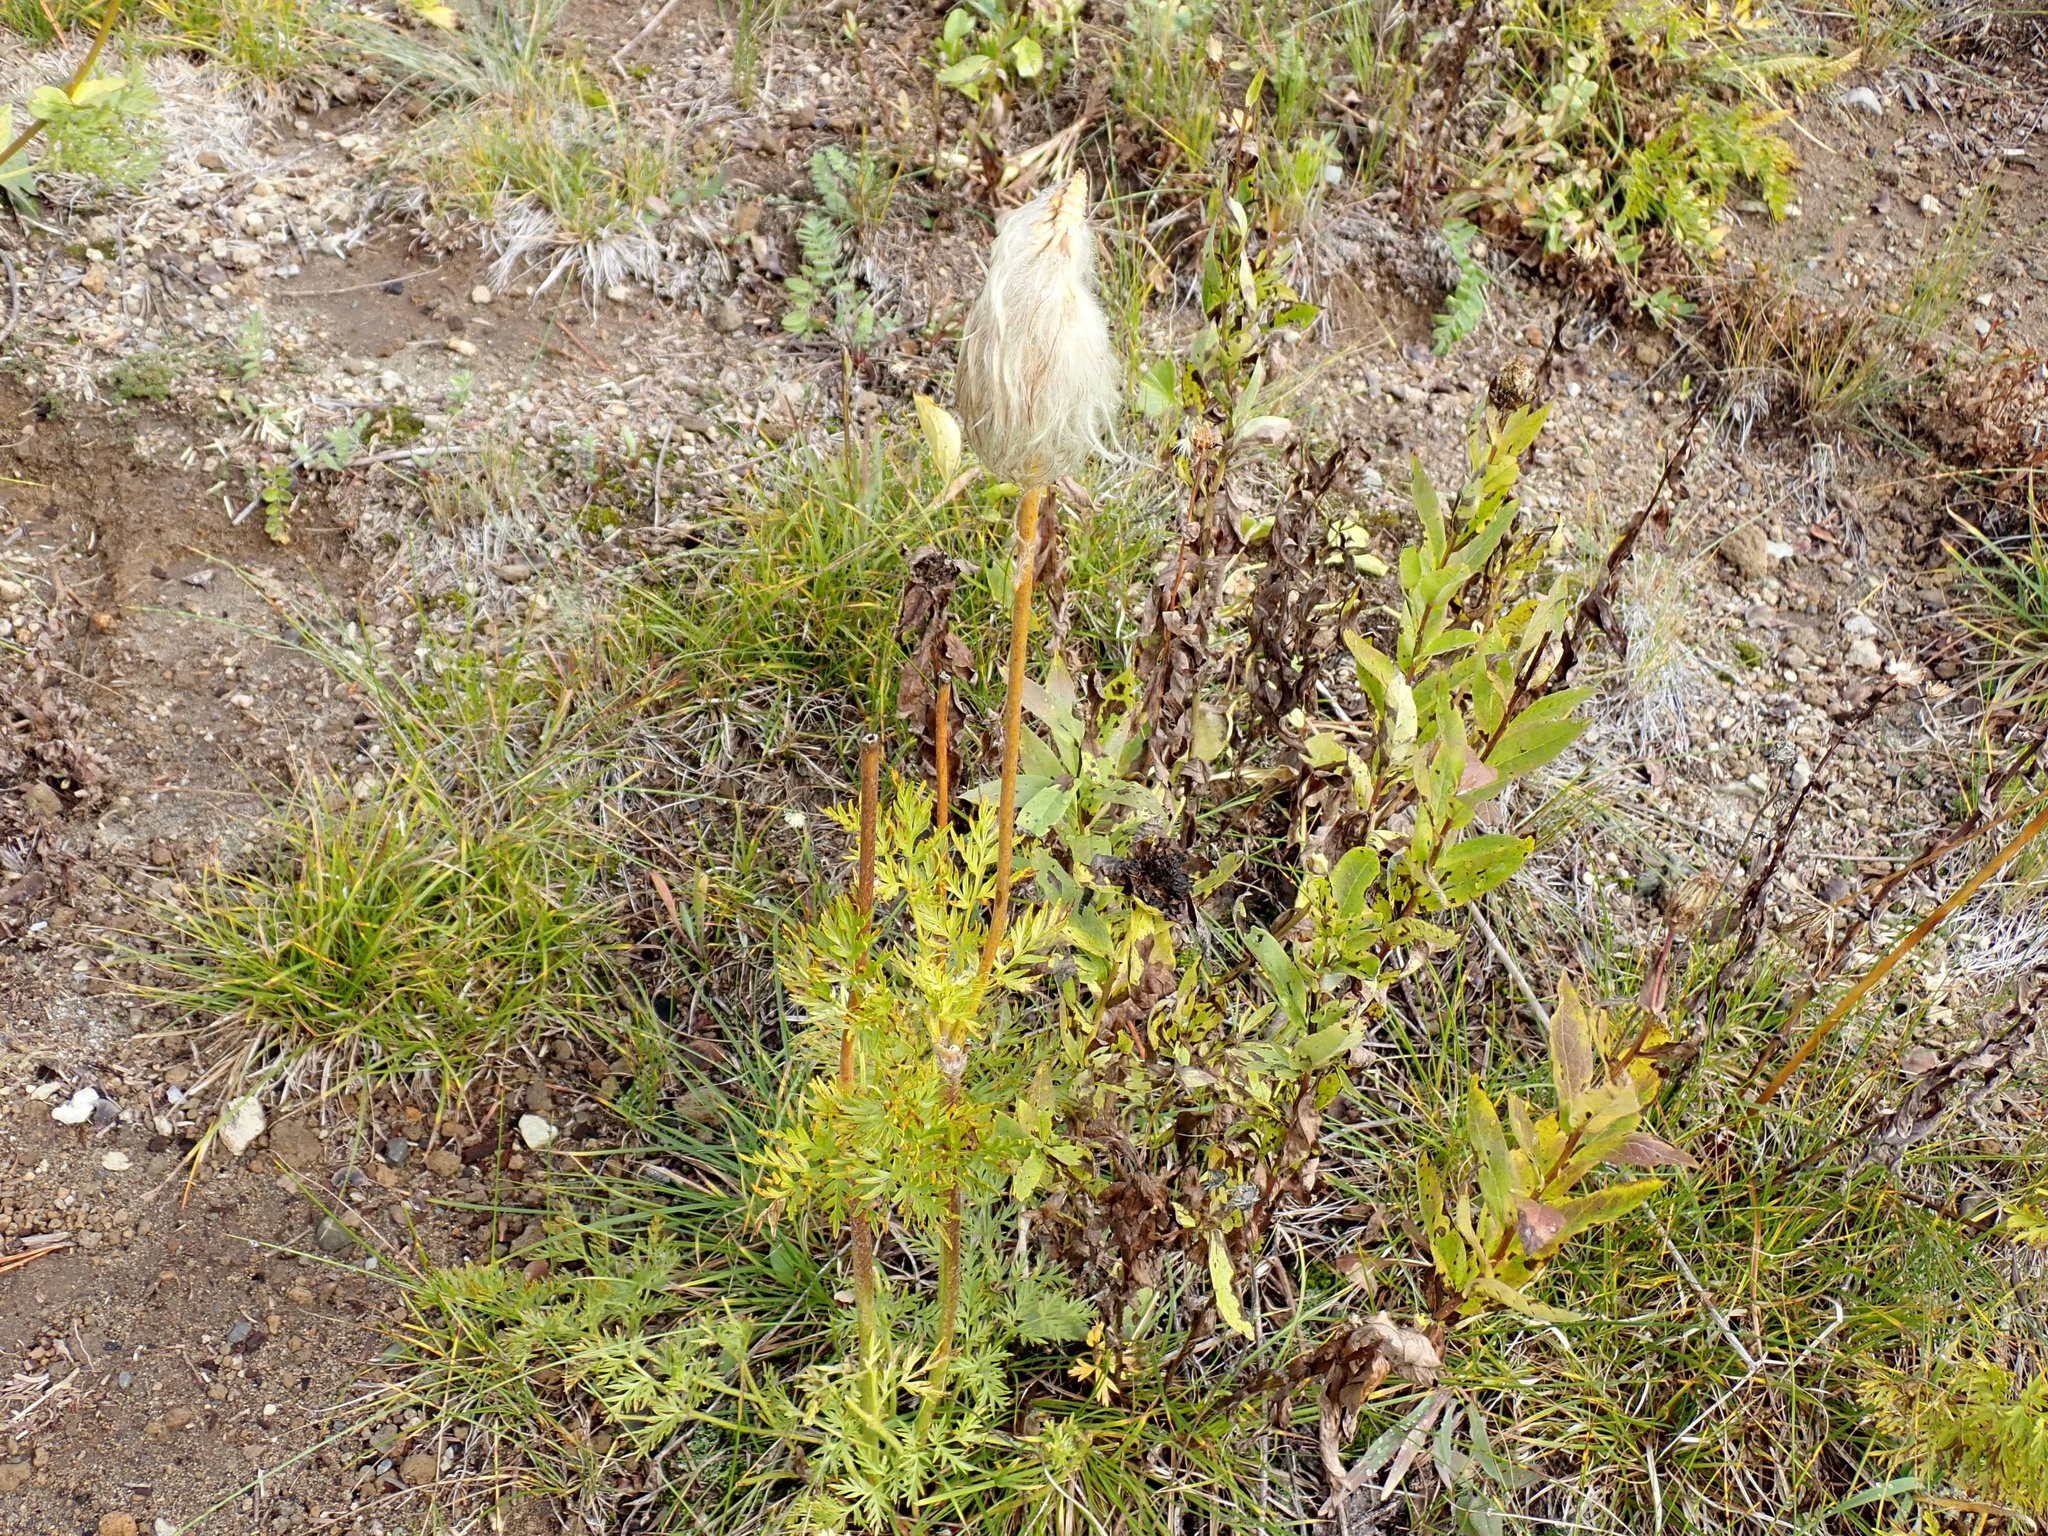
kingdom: Plantae
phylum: Tracheophyta
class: Magnoliopsida
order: Ranunculales
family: Ranunculaceae
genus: Pulsatilla
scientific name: Pulsatilla occidentalis
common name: Mountain pasqueflower
